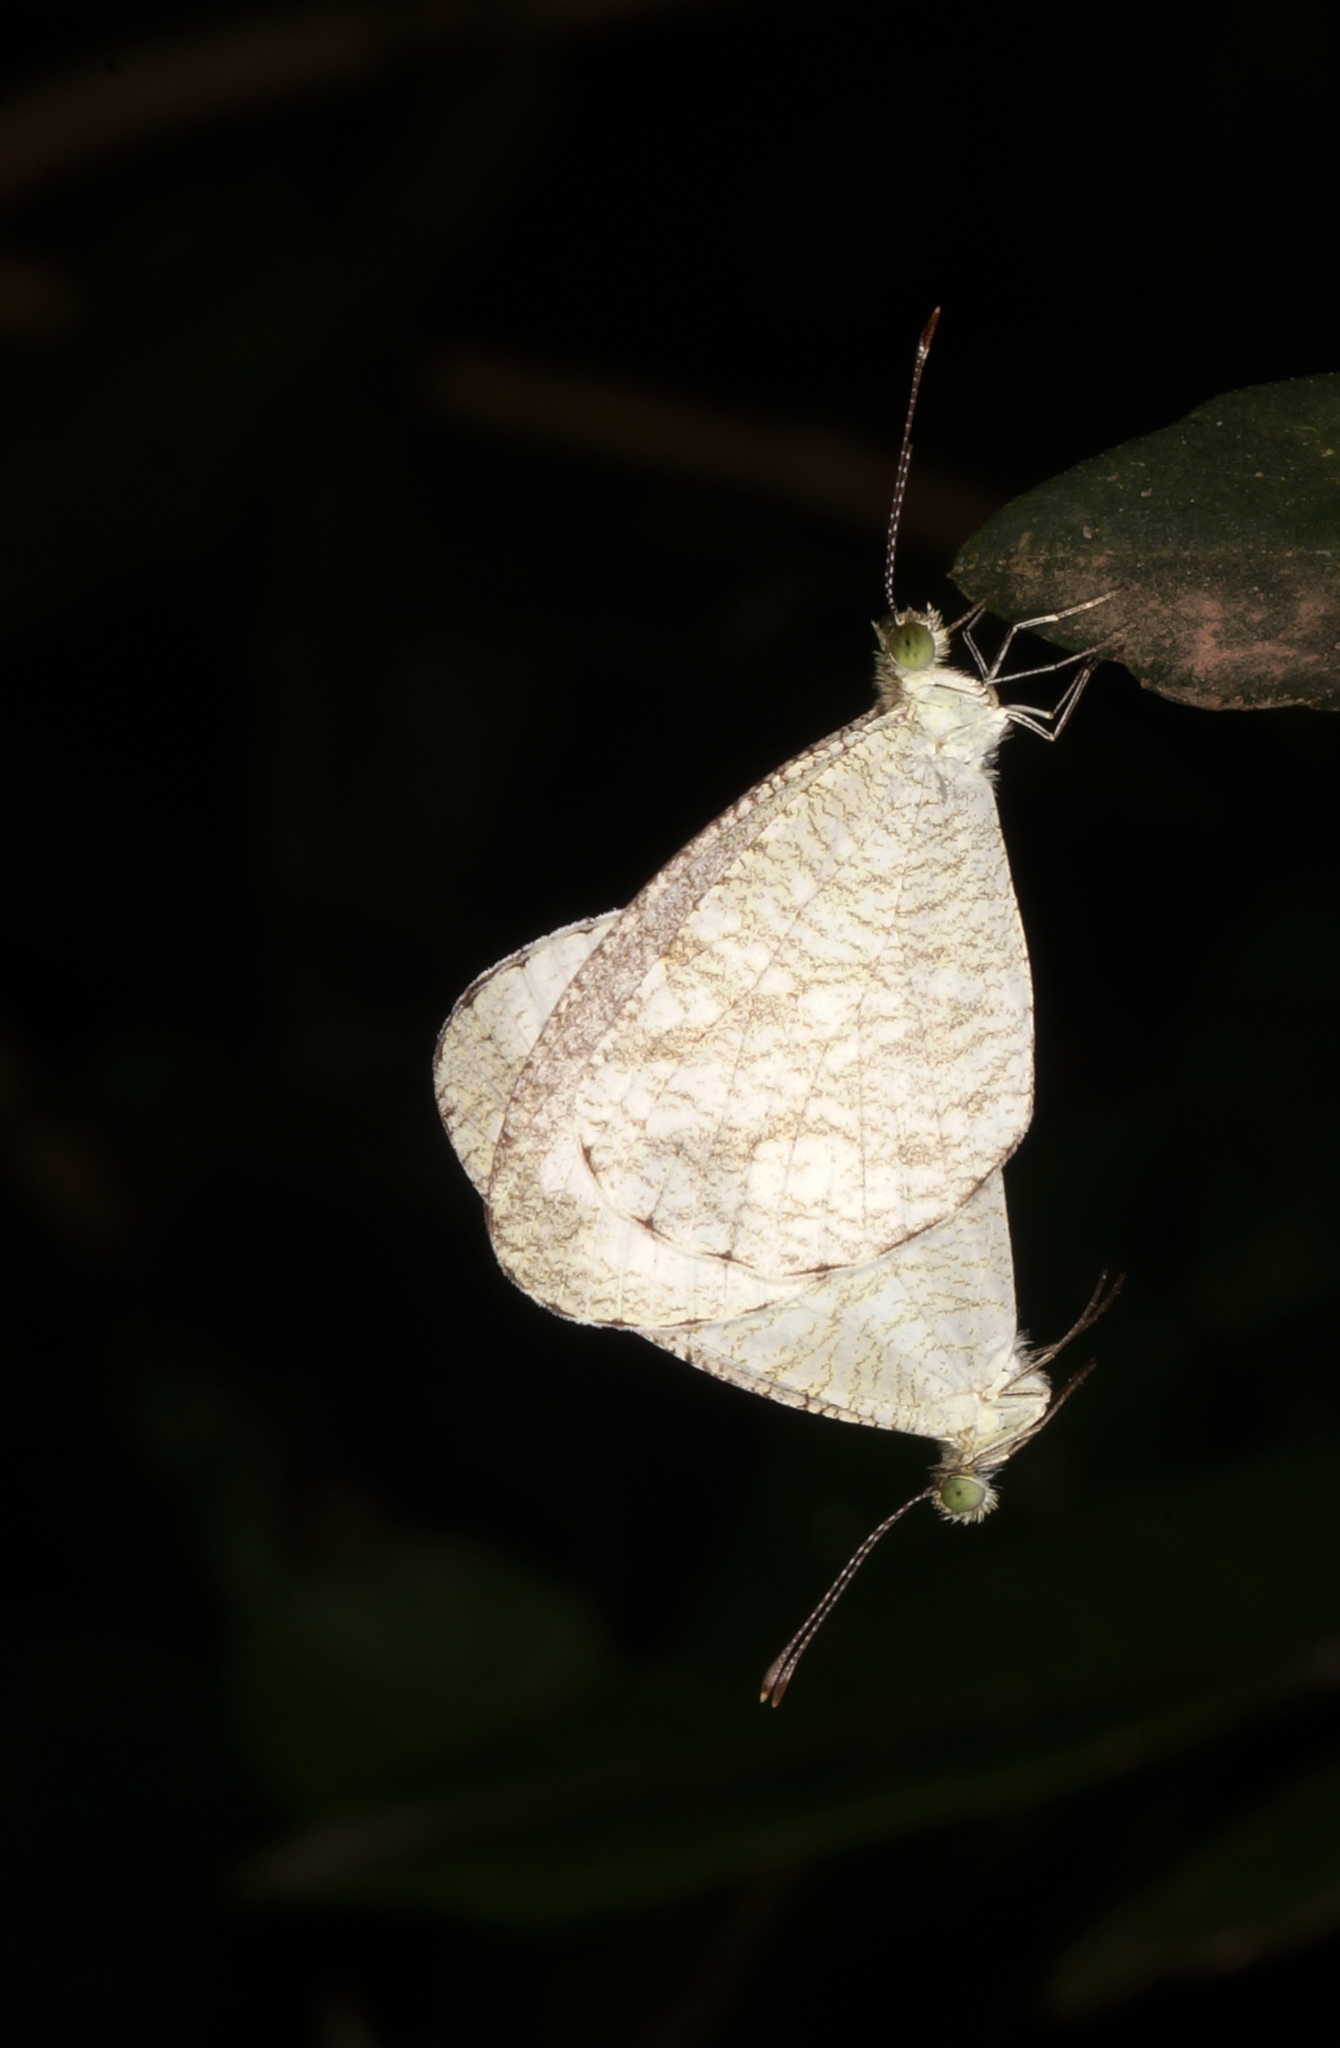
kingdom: Animalia
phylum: Arthropoda
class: Insecta
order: Lepidoptera
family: Pieridae
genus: Leptosia
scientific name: Leptosia nina
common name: Psyche
